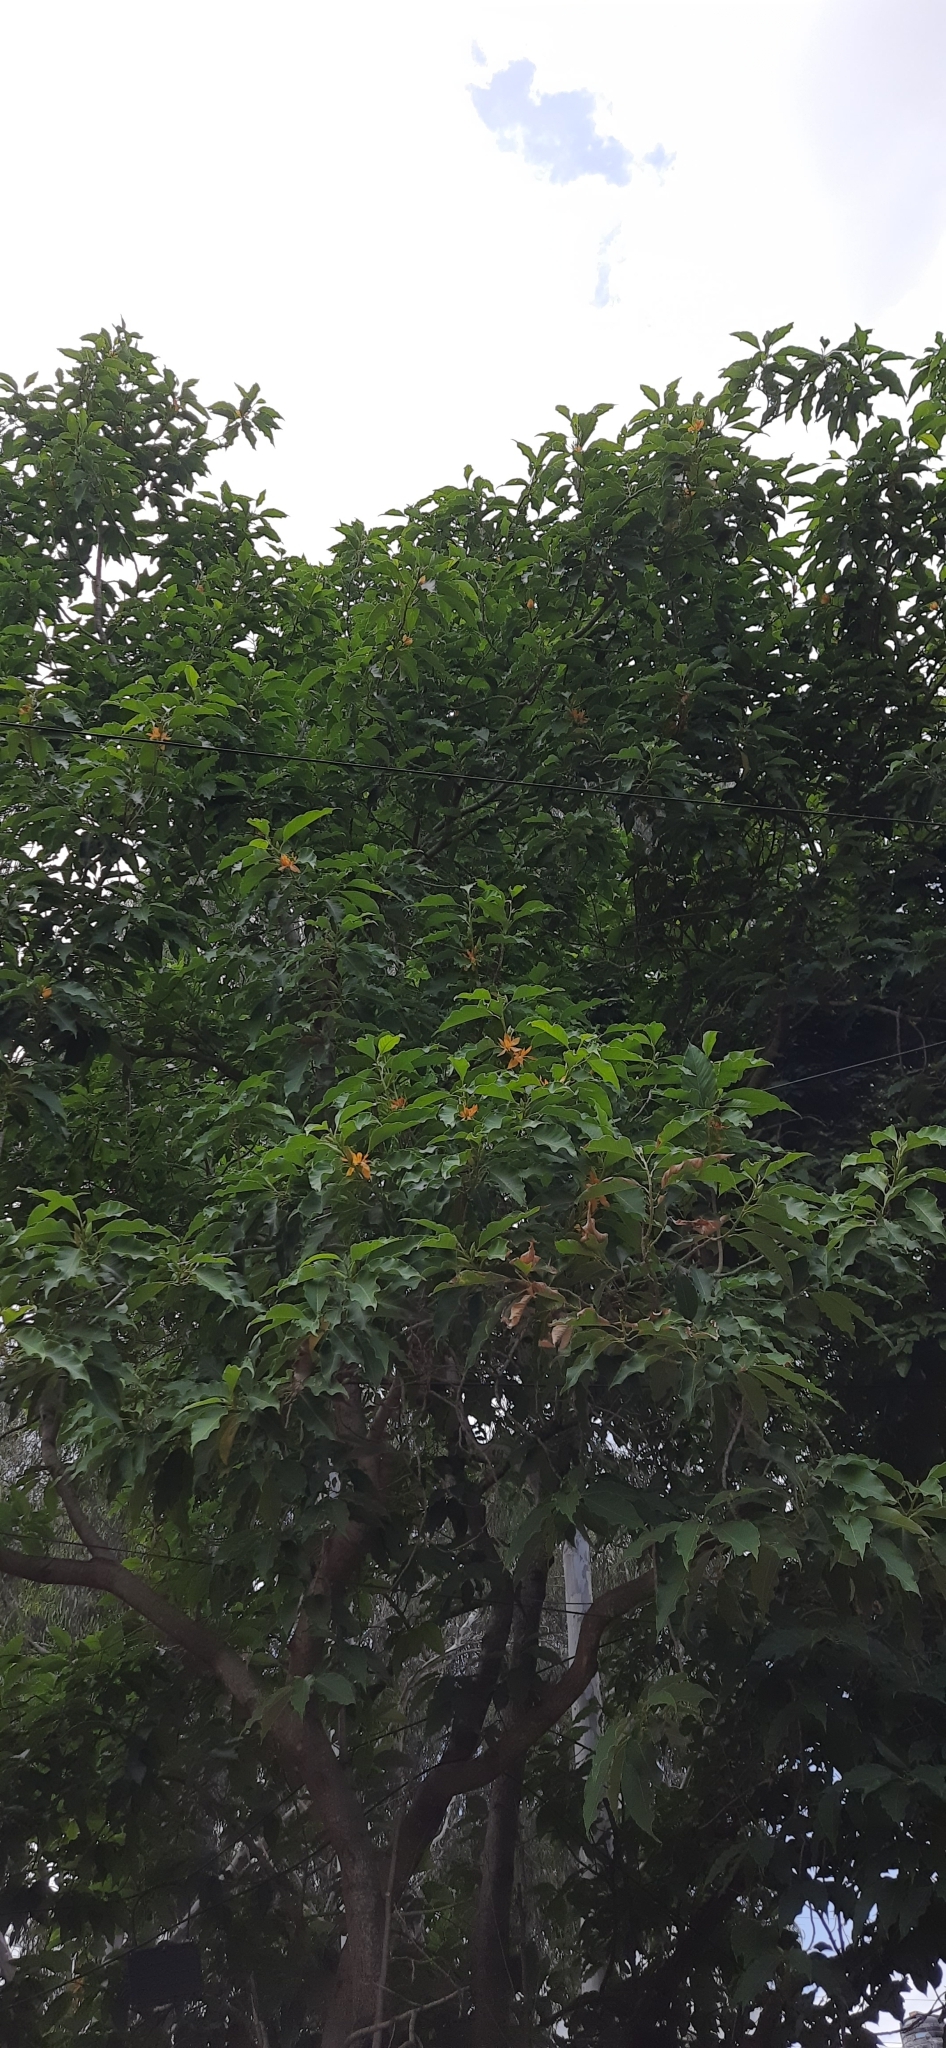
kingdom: Plantae
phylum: Tracheophyta
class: Magnoliopsida
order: Magnoliales
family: Magnoliaceae
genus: Magnolia
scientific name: Magnolia champaca
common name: Champak
